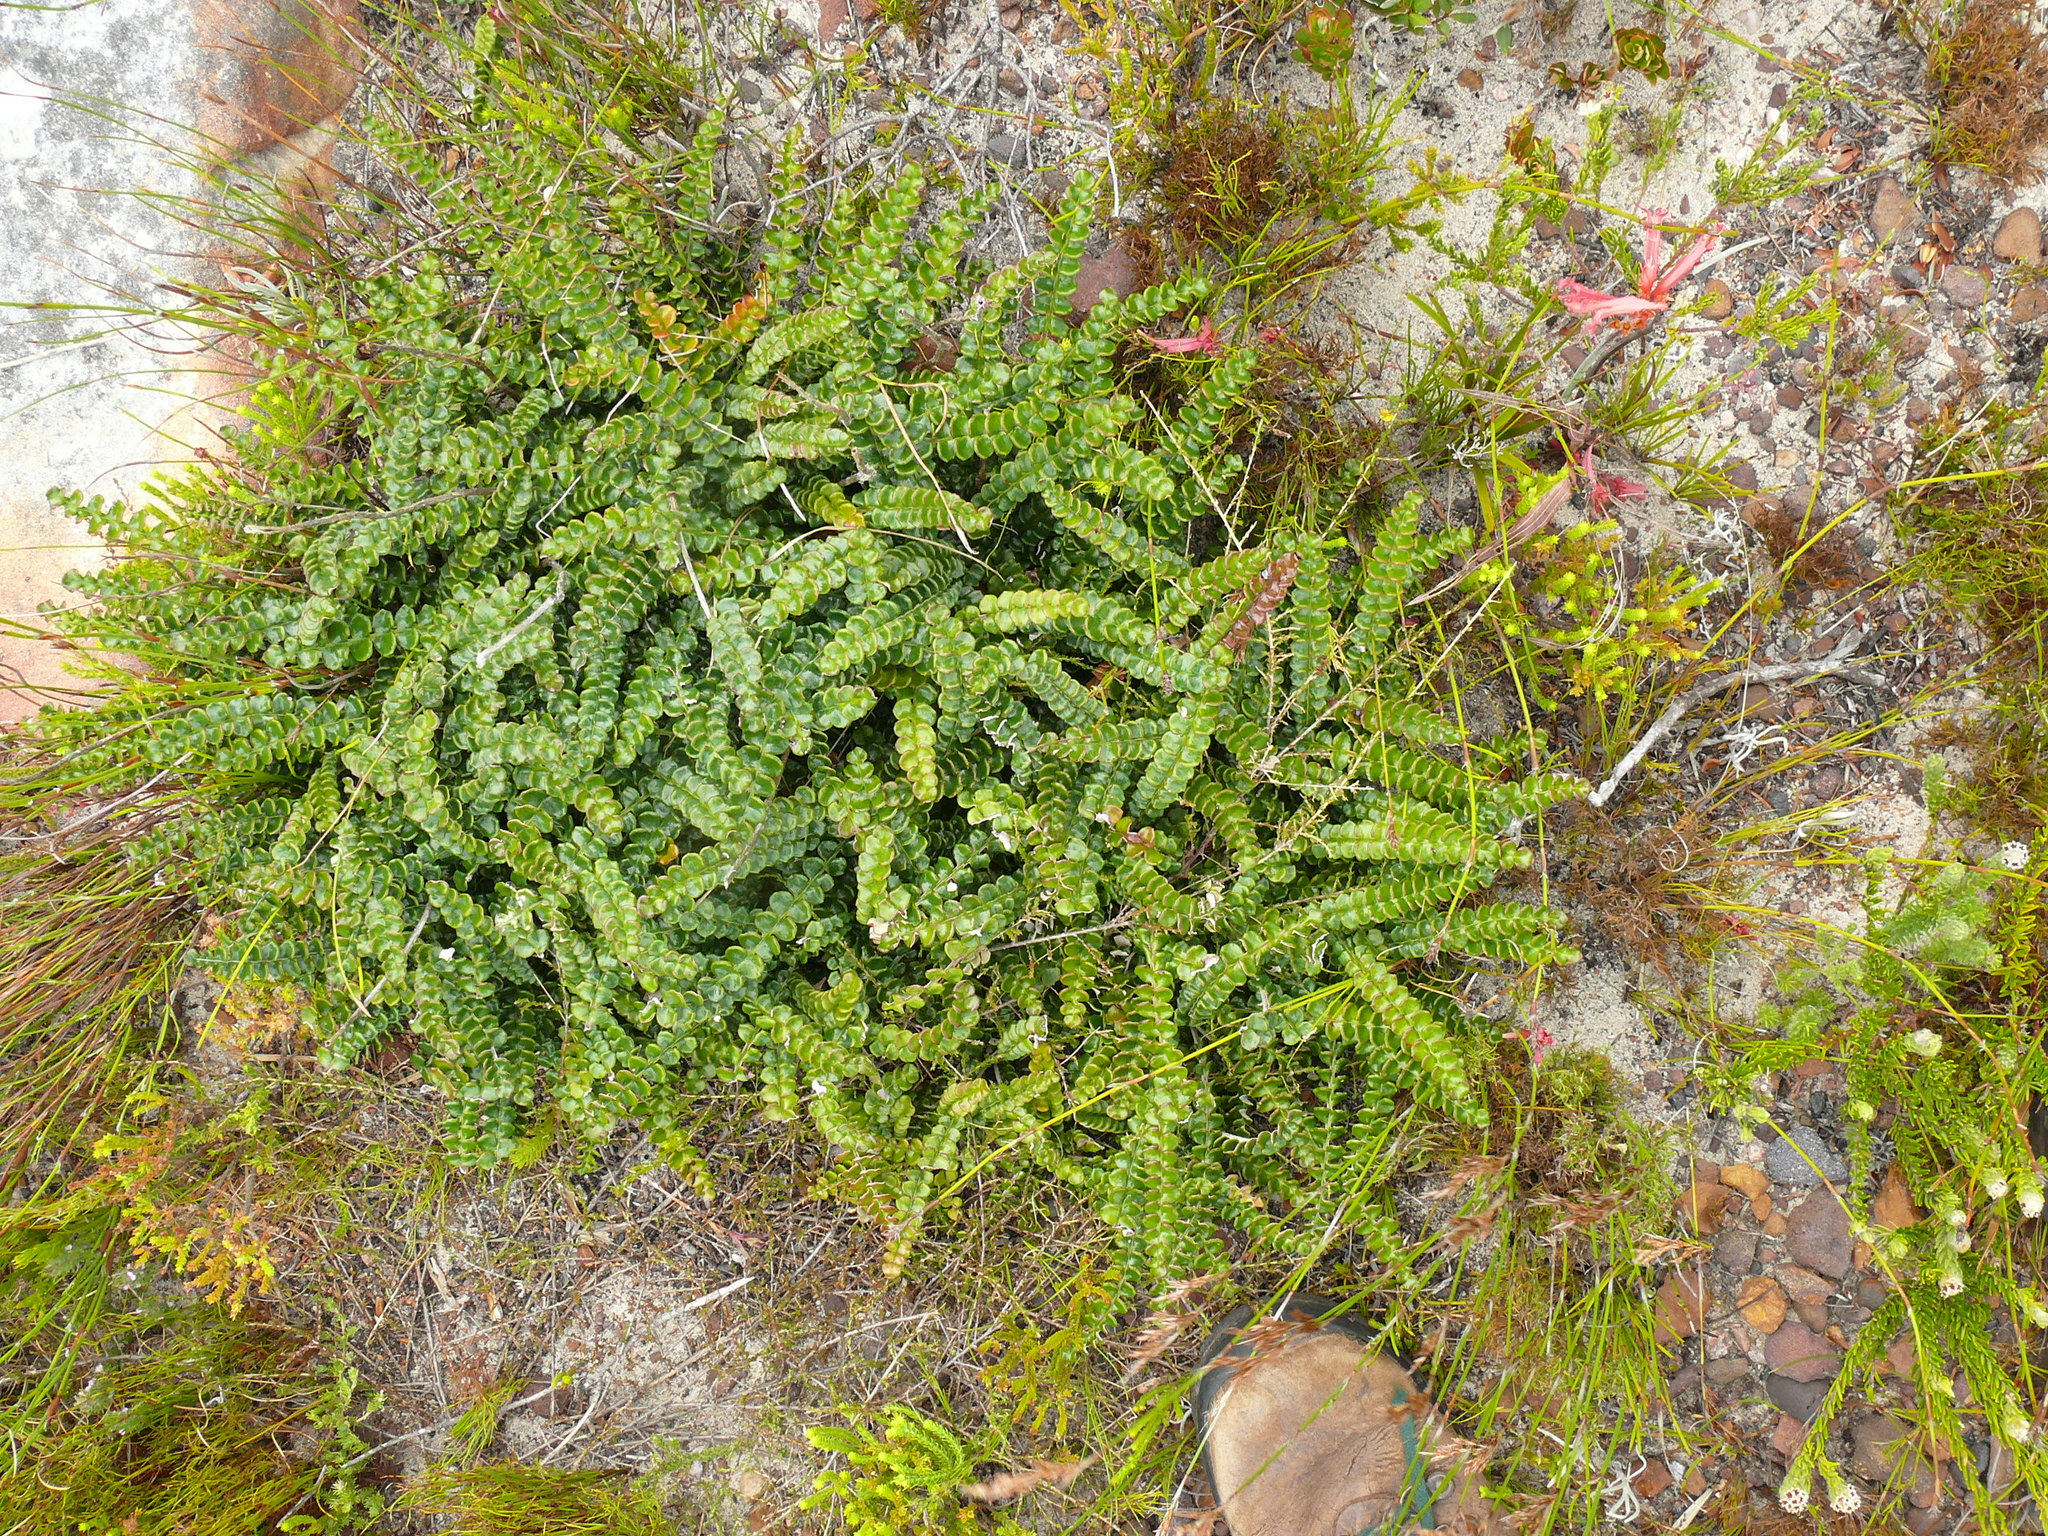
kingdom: Plantae
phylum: Tracheophyta
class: Magnoliopsida
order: Asterales
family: Asteraceae
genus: Gerbera
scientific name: Gerbera linnaei
